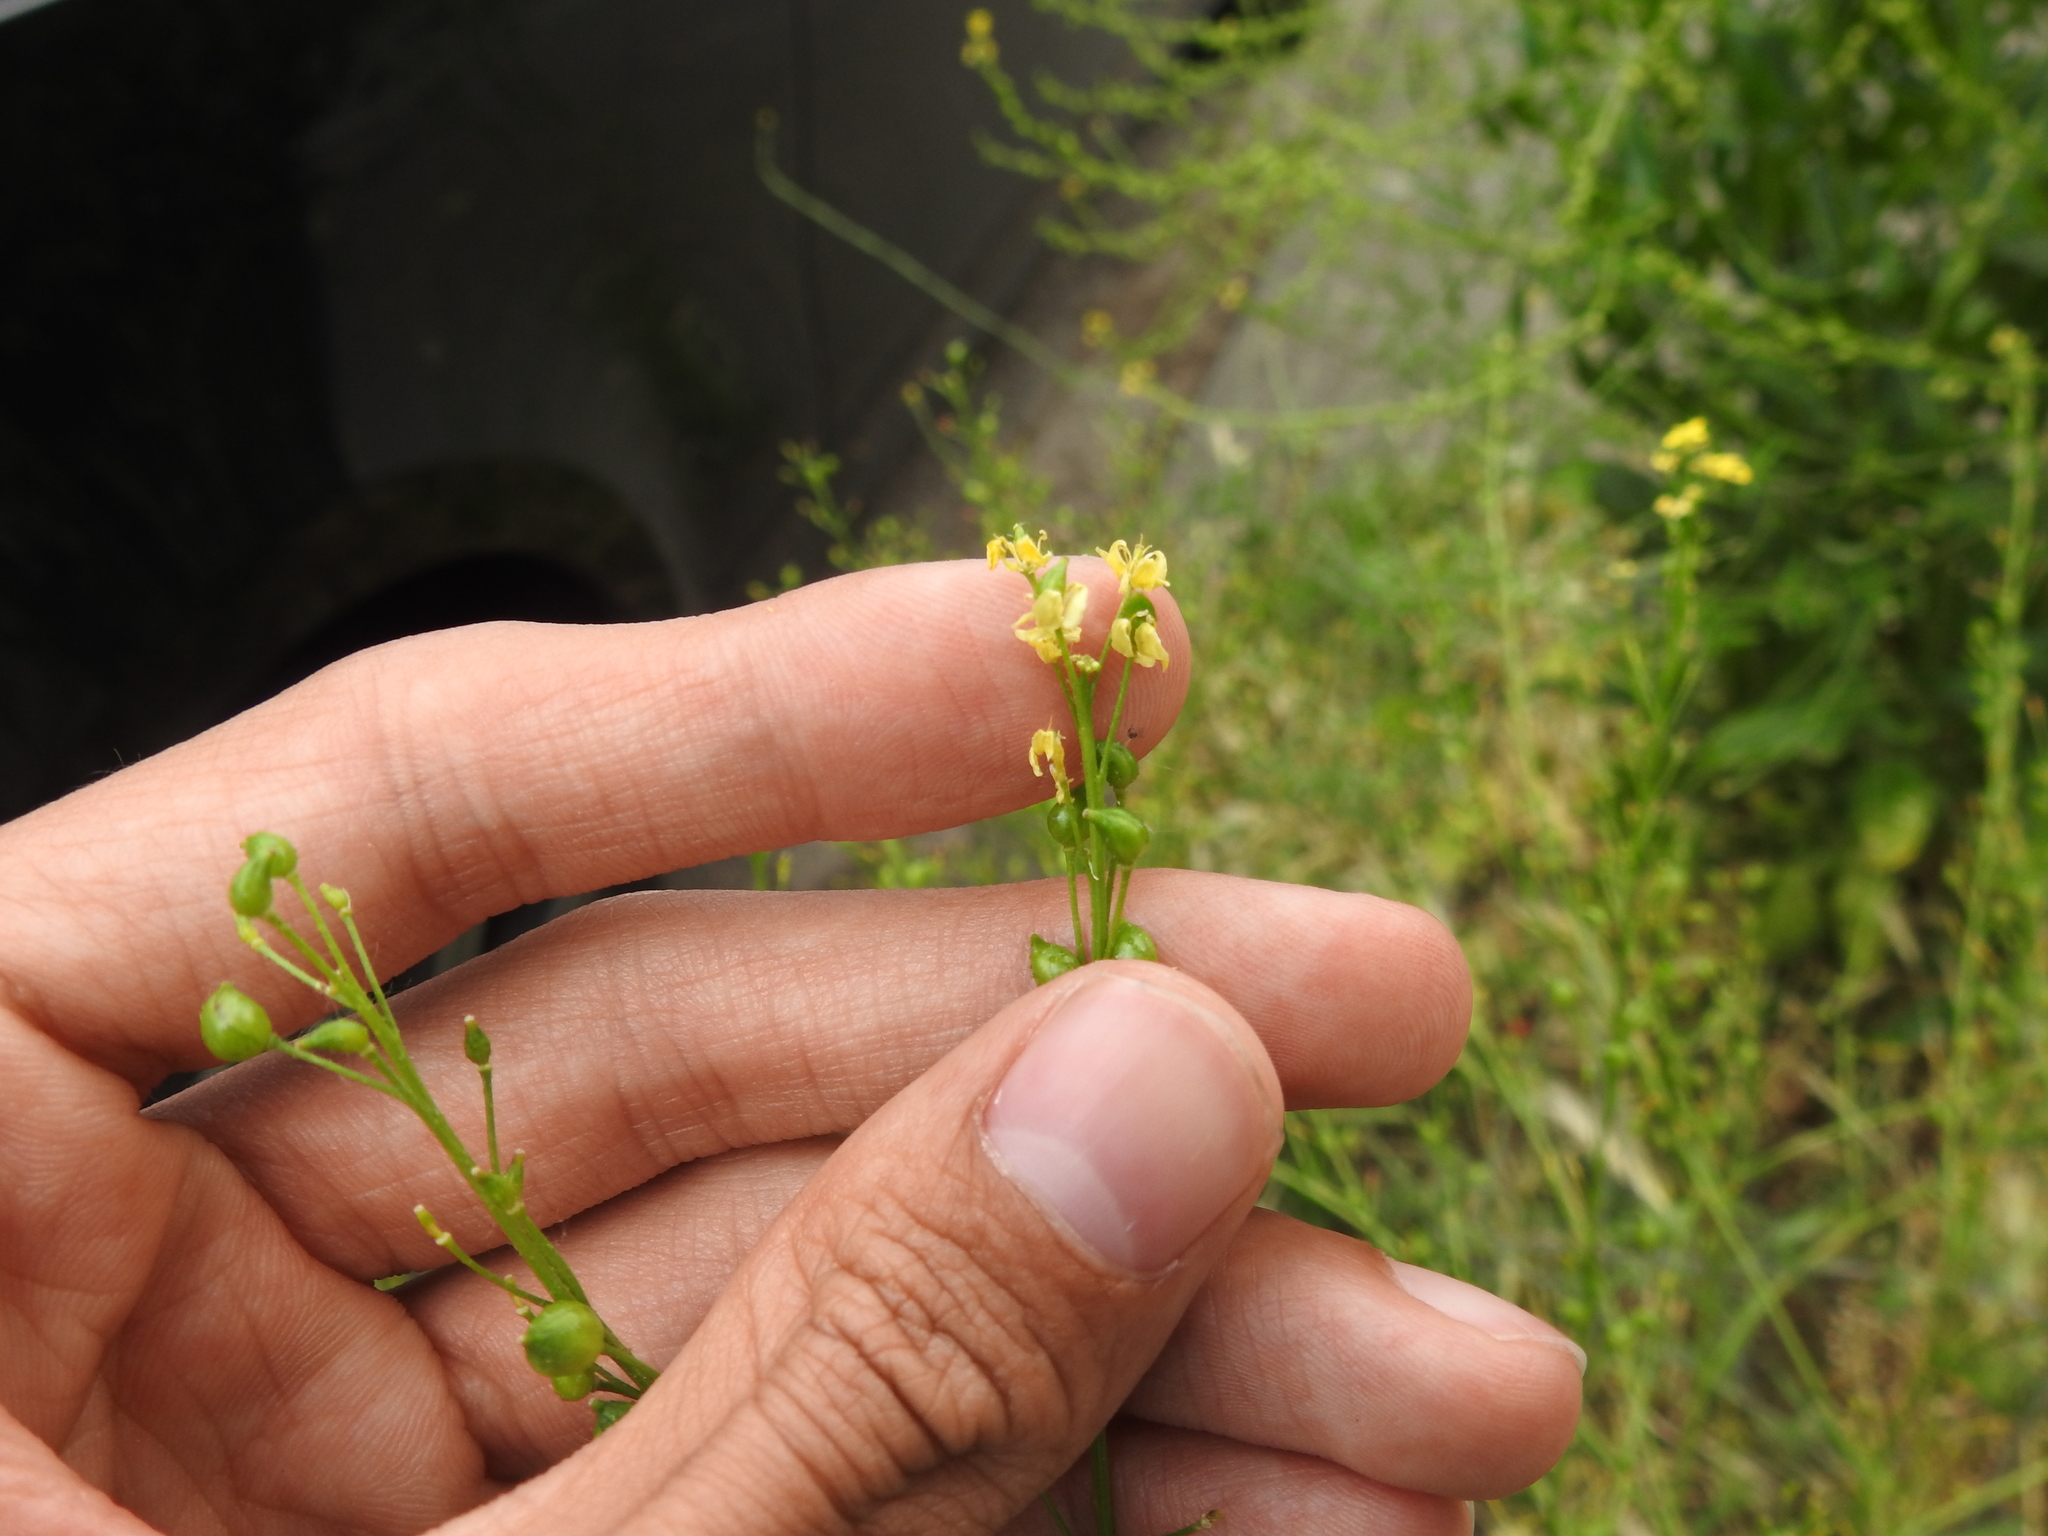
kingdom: Plantae
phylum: Tracheophyta
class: Magnoliopsida
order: Brassicales
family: Brassicaceae
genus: Bunias
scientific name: Bunias orientalis
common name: Warty-cabbage
